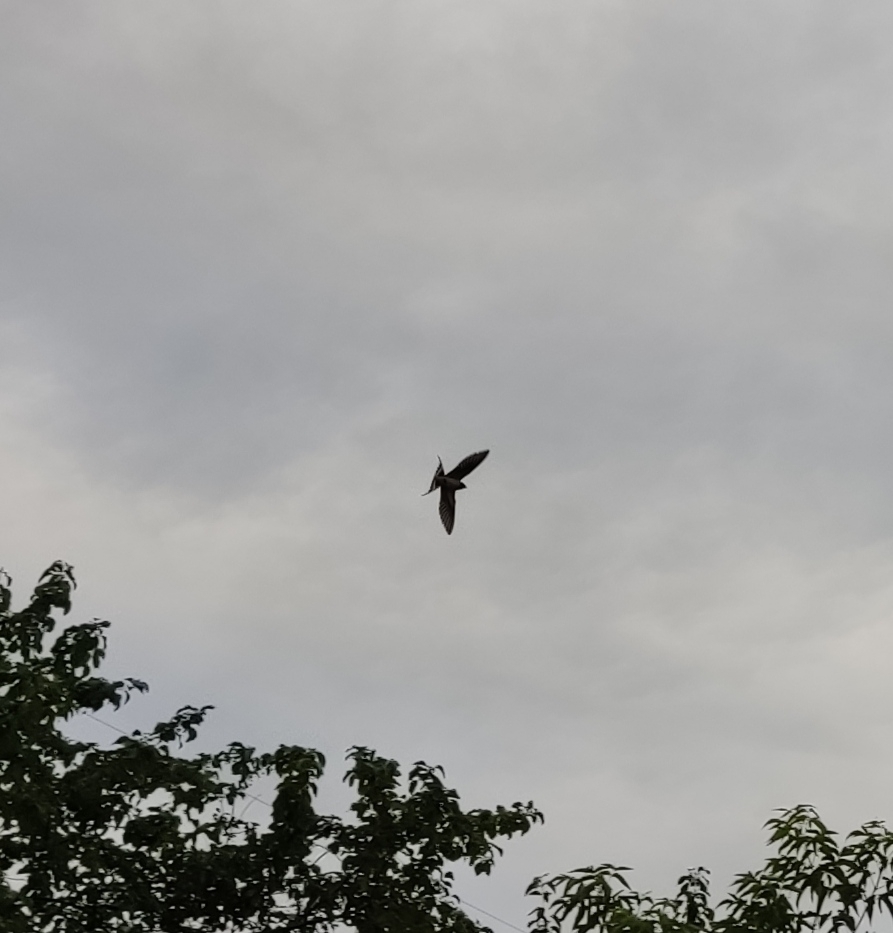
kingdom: Animalia
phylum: Chordata
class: Aves
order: Passeriformes
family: Hirundinidae
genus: Hirundo
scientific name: Hirundo rustica
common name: Barn swallow
